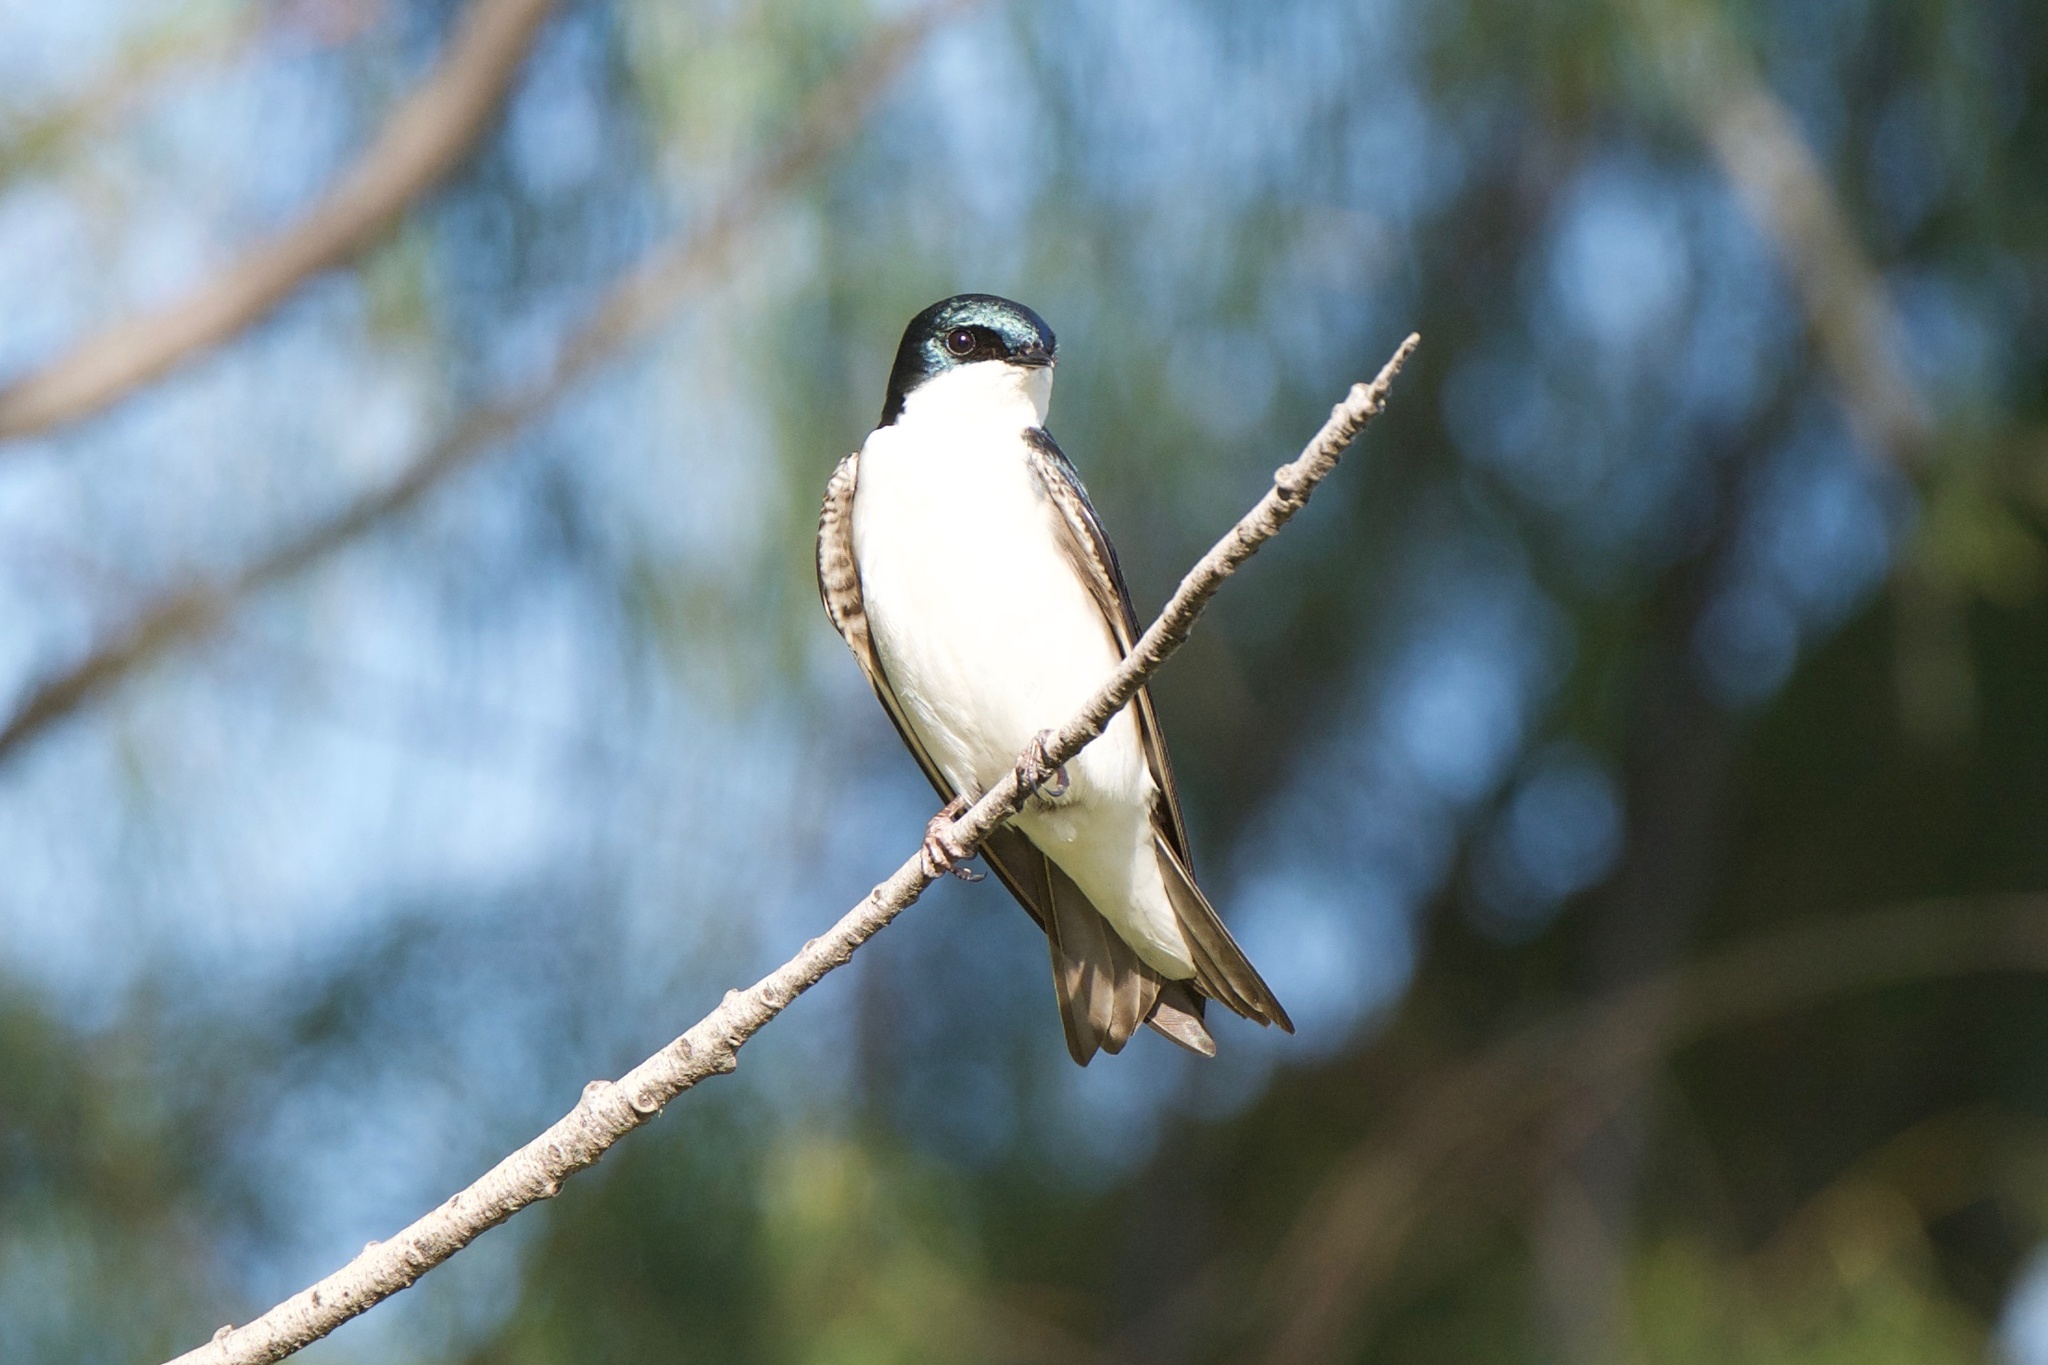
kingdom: Animalia
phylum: Chordata
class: Aves
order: Passeriformes
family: Hirundinidae
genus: Tachycineta
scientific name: Tachycineta bicolor
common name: Tree swallow
